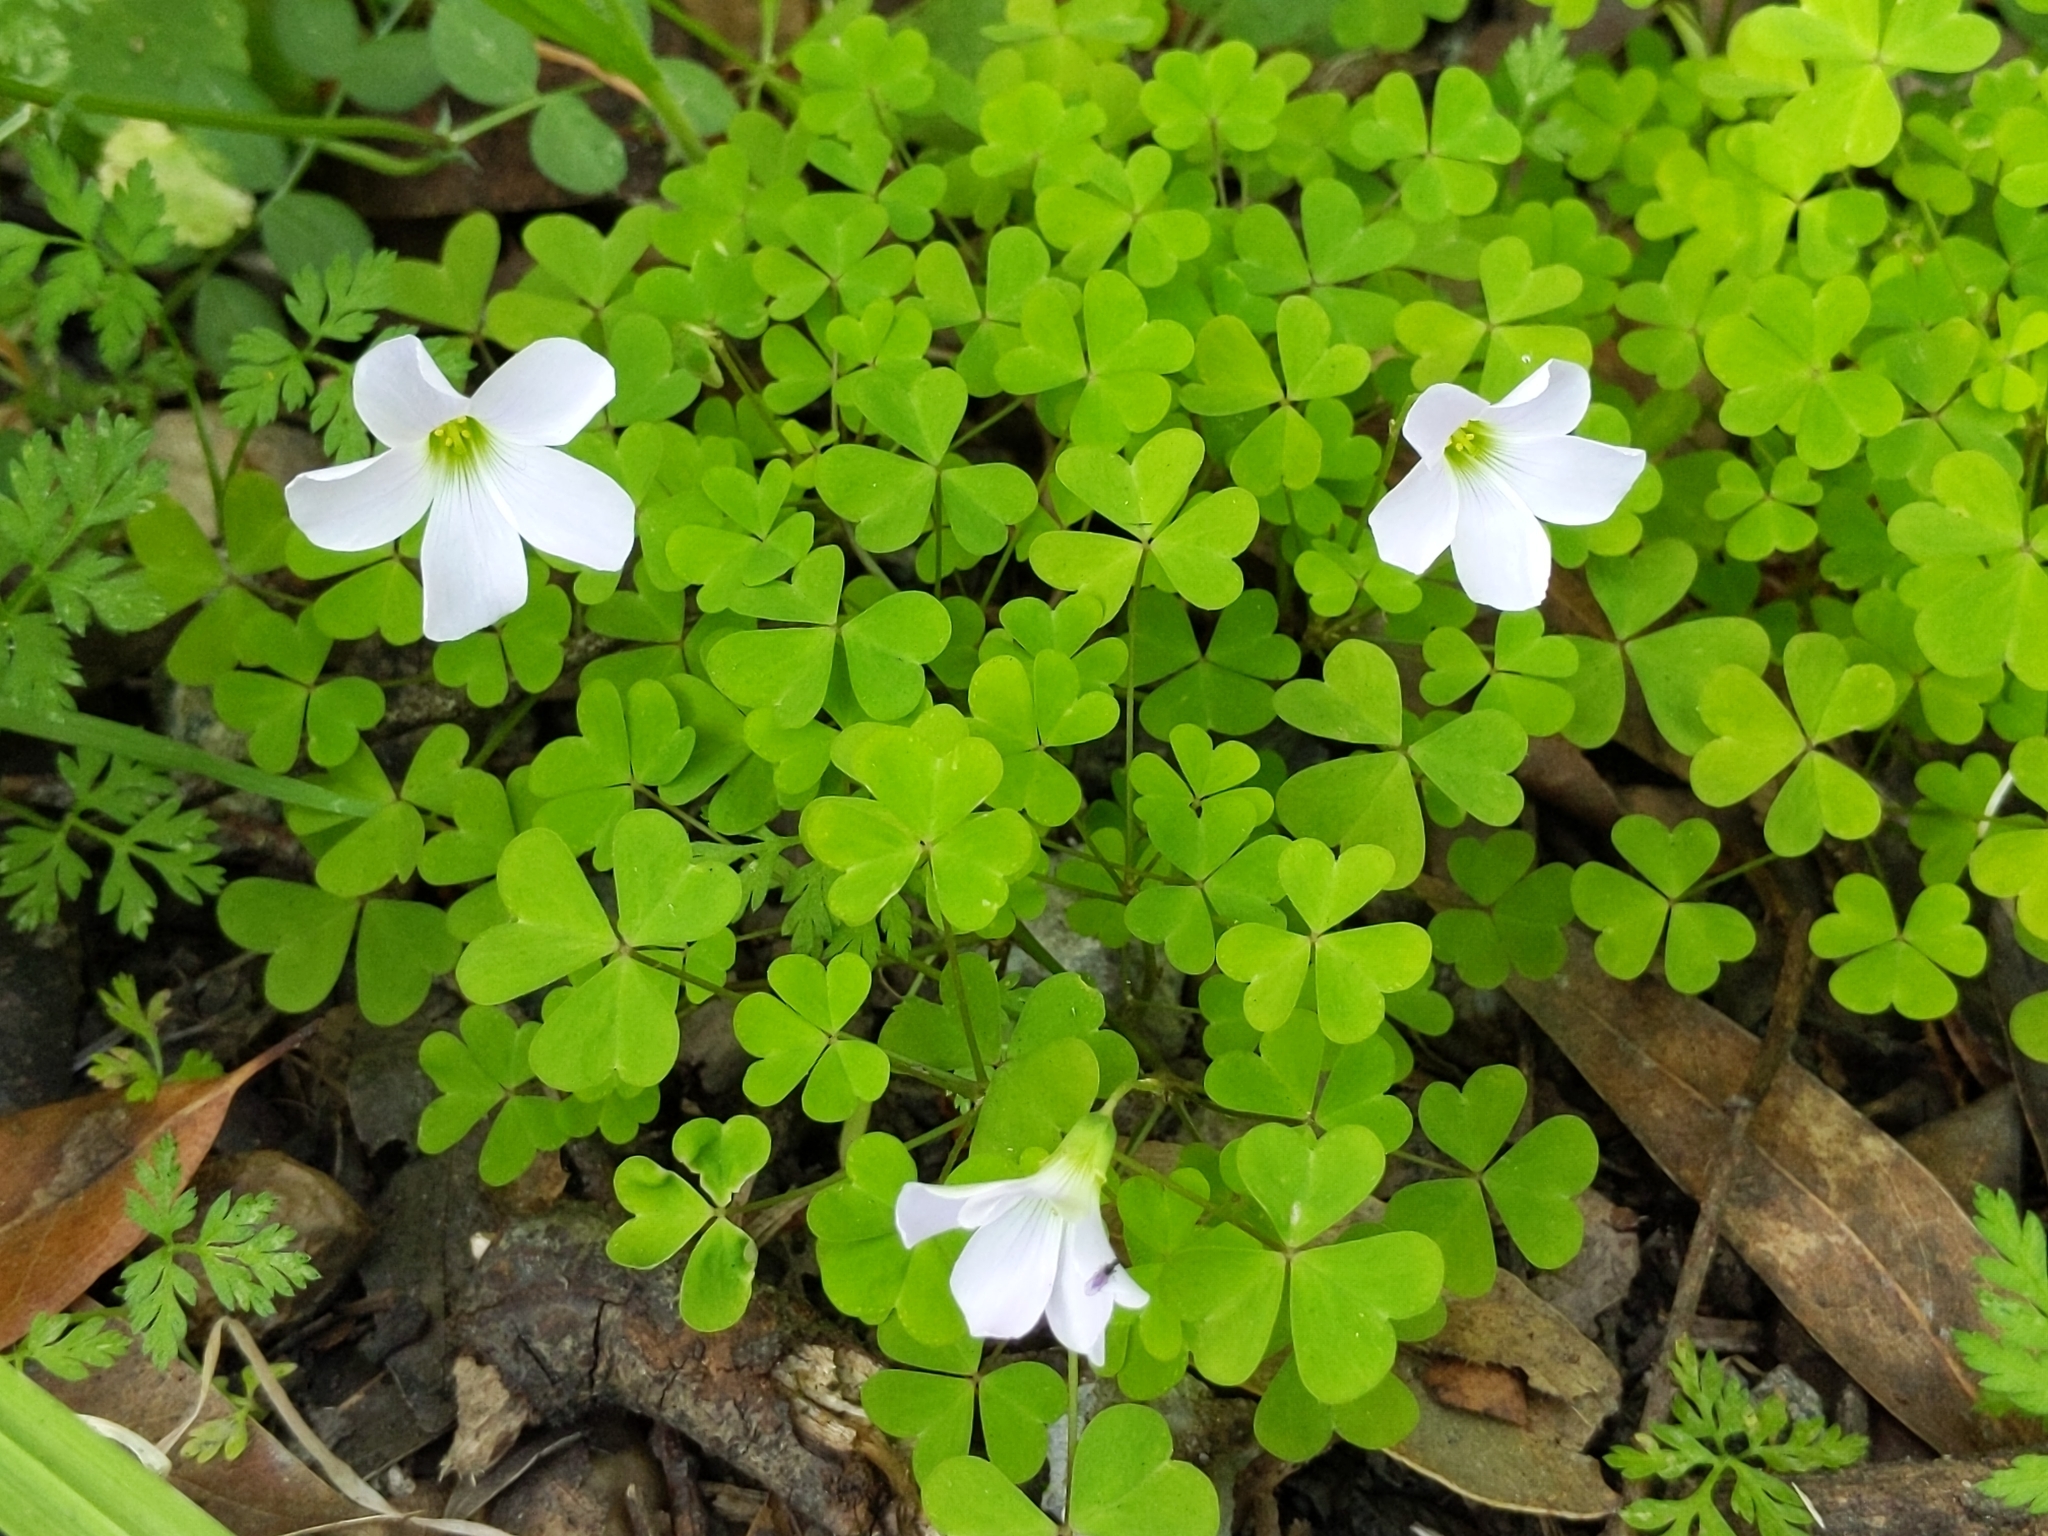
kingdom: Plantae
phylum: Tracheophyta
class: Magnoliopsida
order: Oxalidales
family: Oxalidaceae
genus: Oxalis
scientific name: Oxalis incarnata
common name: Pale pink-sorrel
